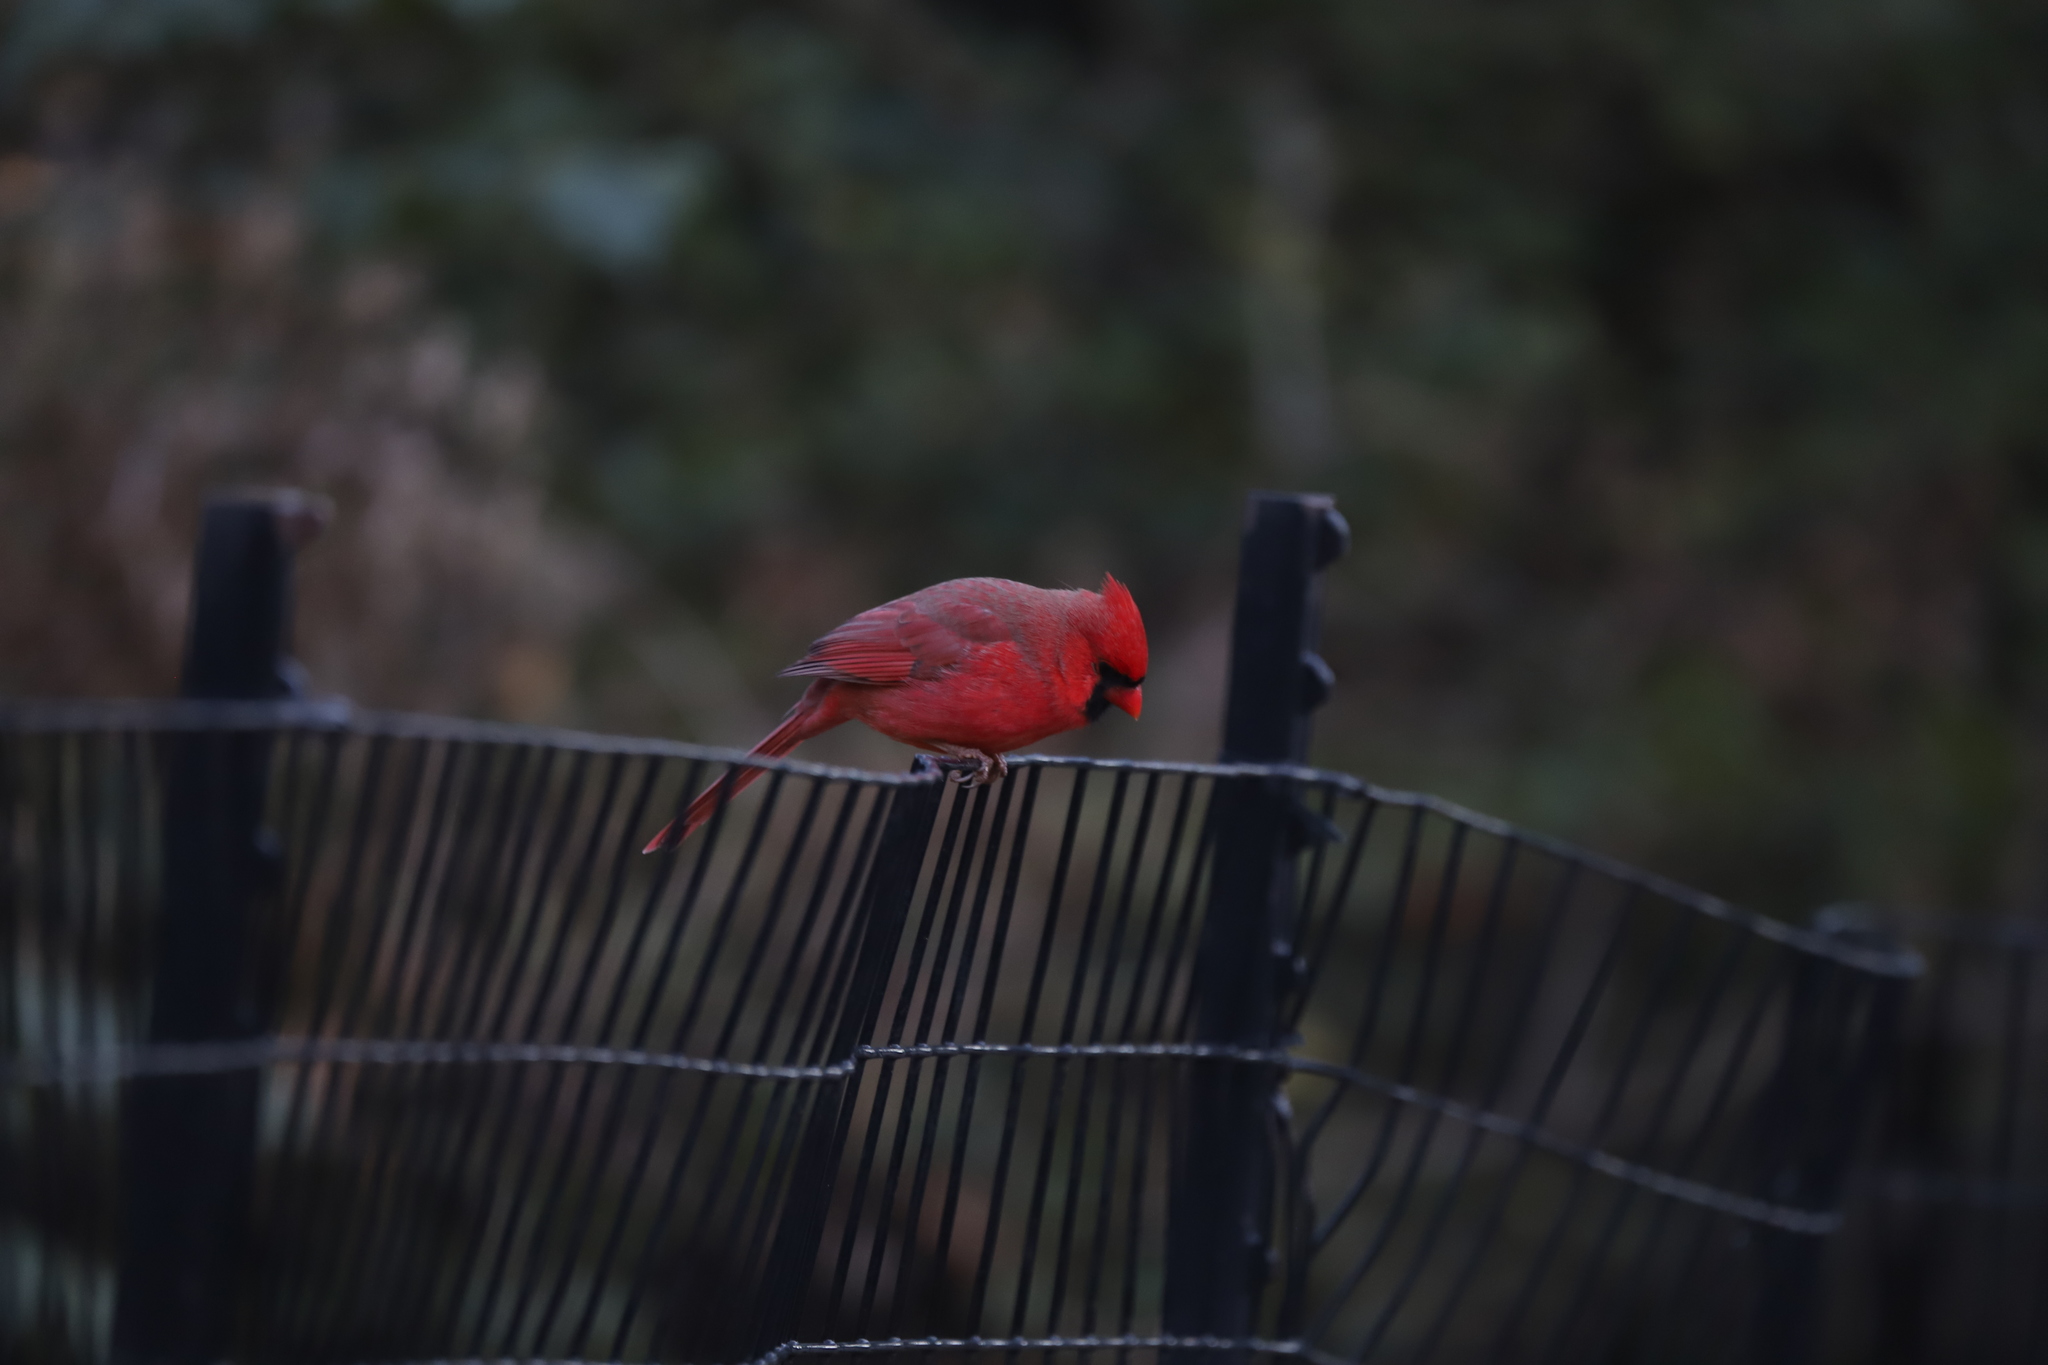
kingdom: Animalia
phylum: Chordata
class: Aves
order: Passeriformes
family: Cardinalidae
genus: Cardinalis
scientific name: Cardinalis cardinalis
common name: Northern cardinal
